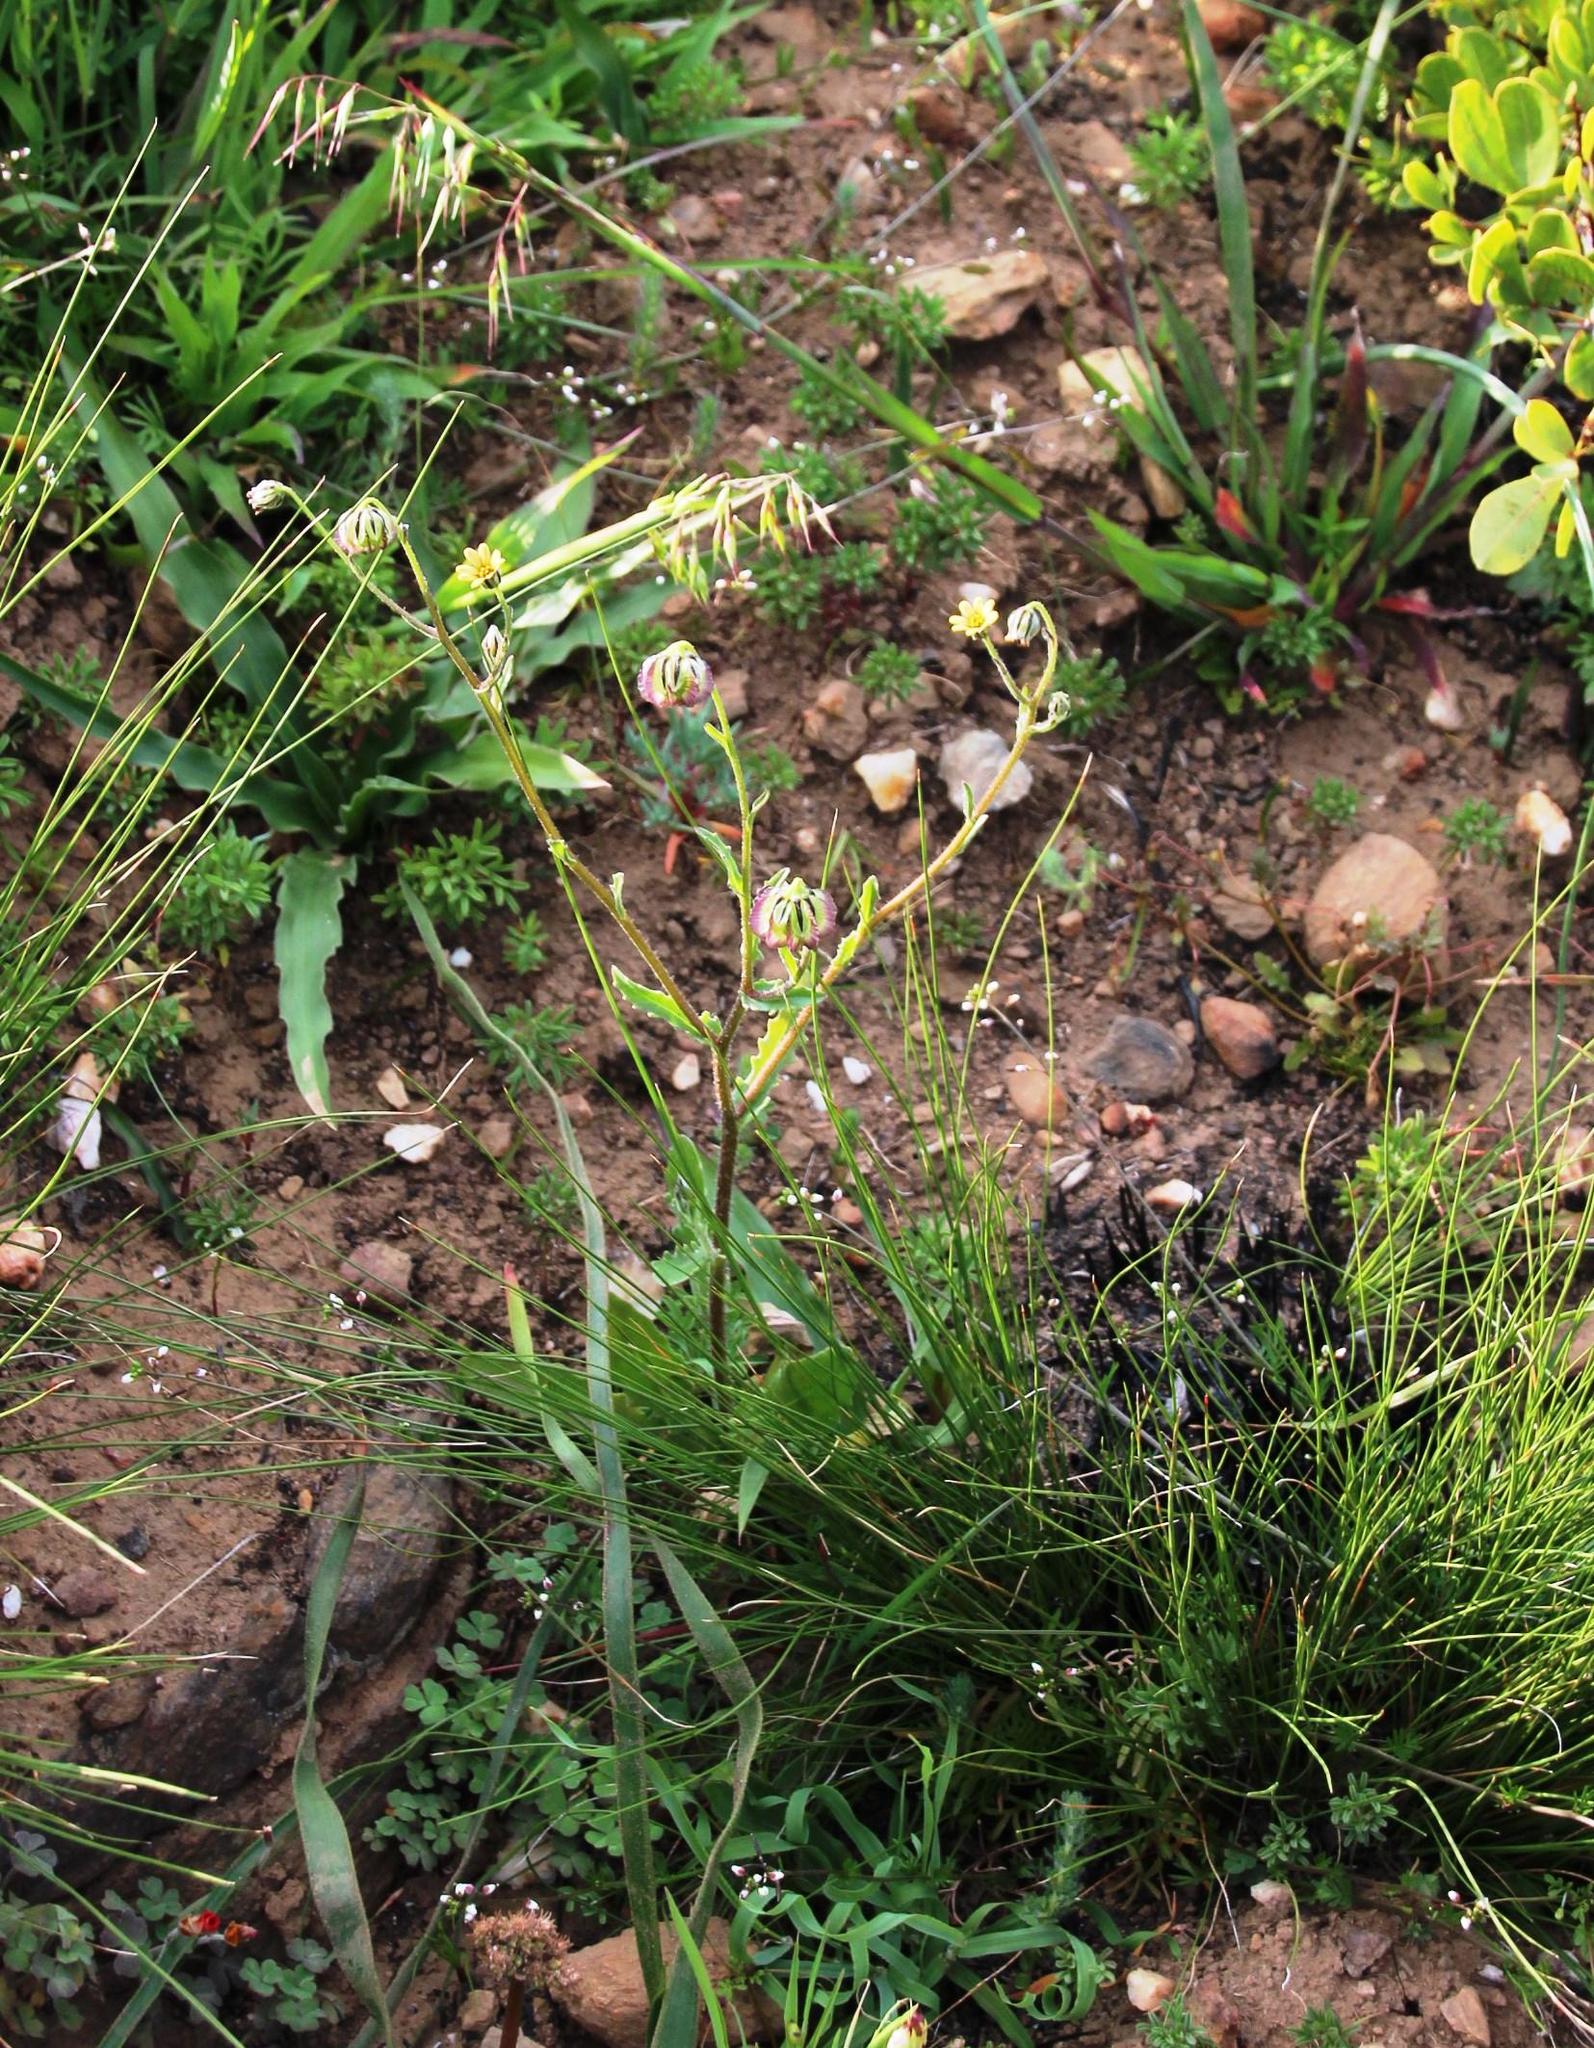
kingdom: Plantae
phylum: Tracheophyta
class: Magnoliopsida
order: Asterales
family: Asteraceae
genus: Osteospermum
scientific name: Osteospermum monstrosum
